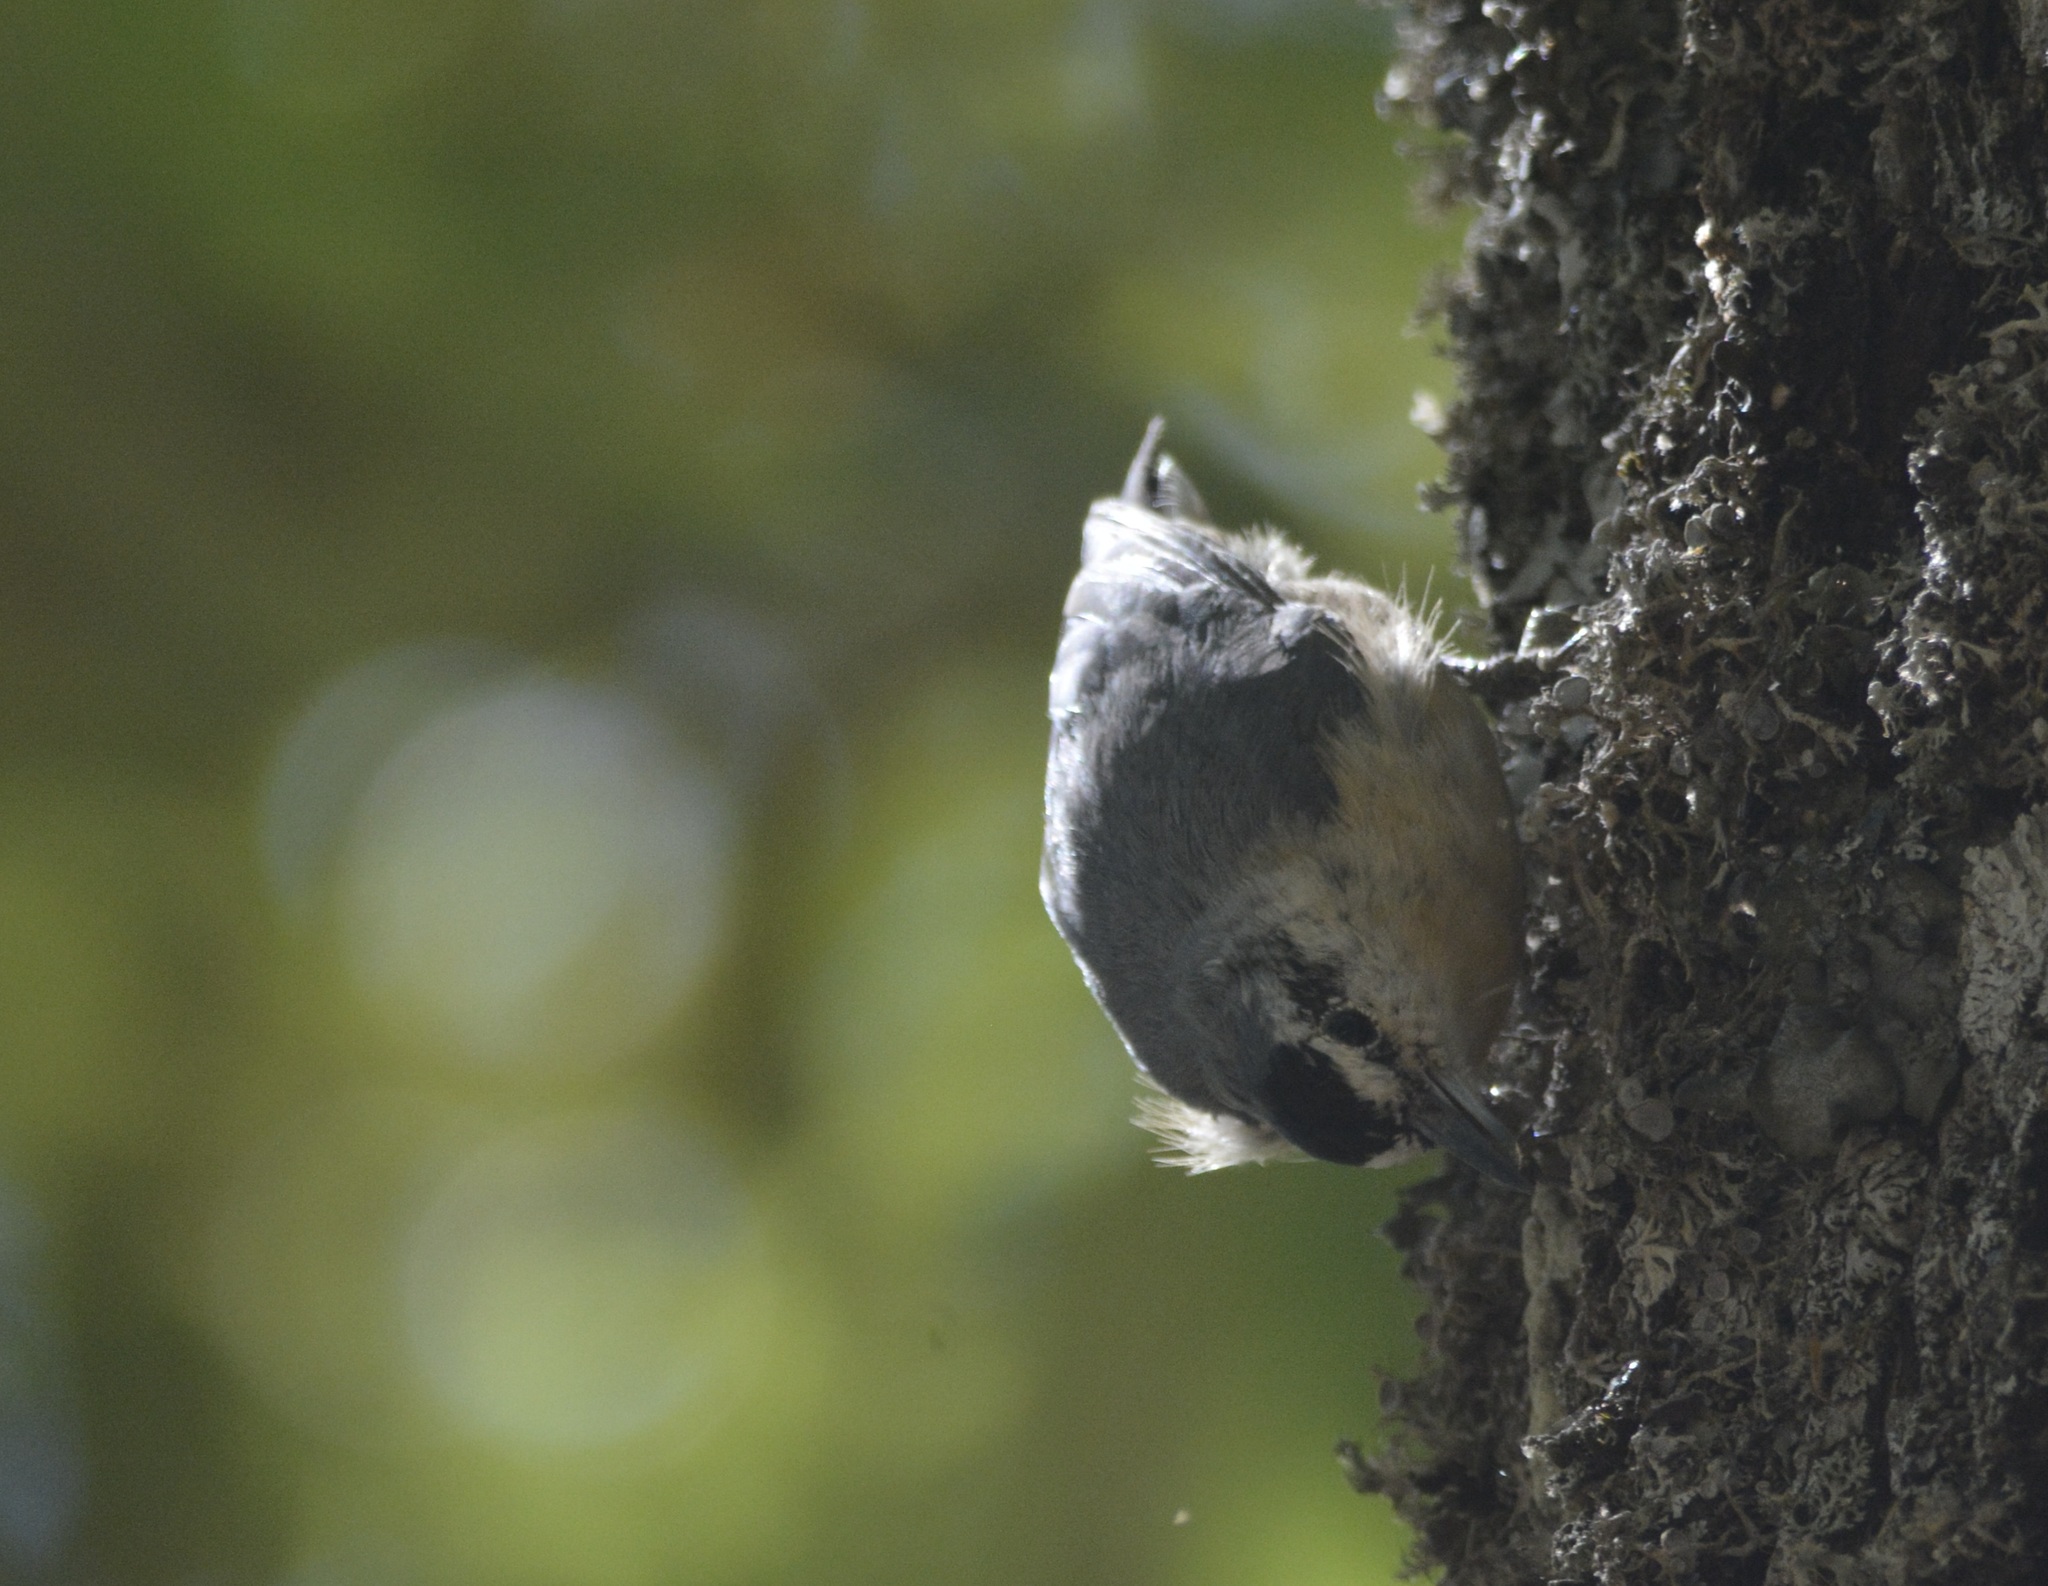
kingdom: Animalia
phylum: Chordata
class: Aves
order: Passeriformes
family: Sittidae
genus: Sitta
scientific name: Sitta ledanti
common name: Algerian nuthatch
